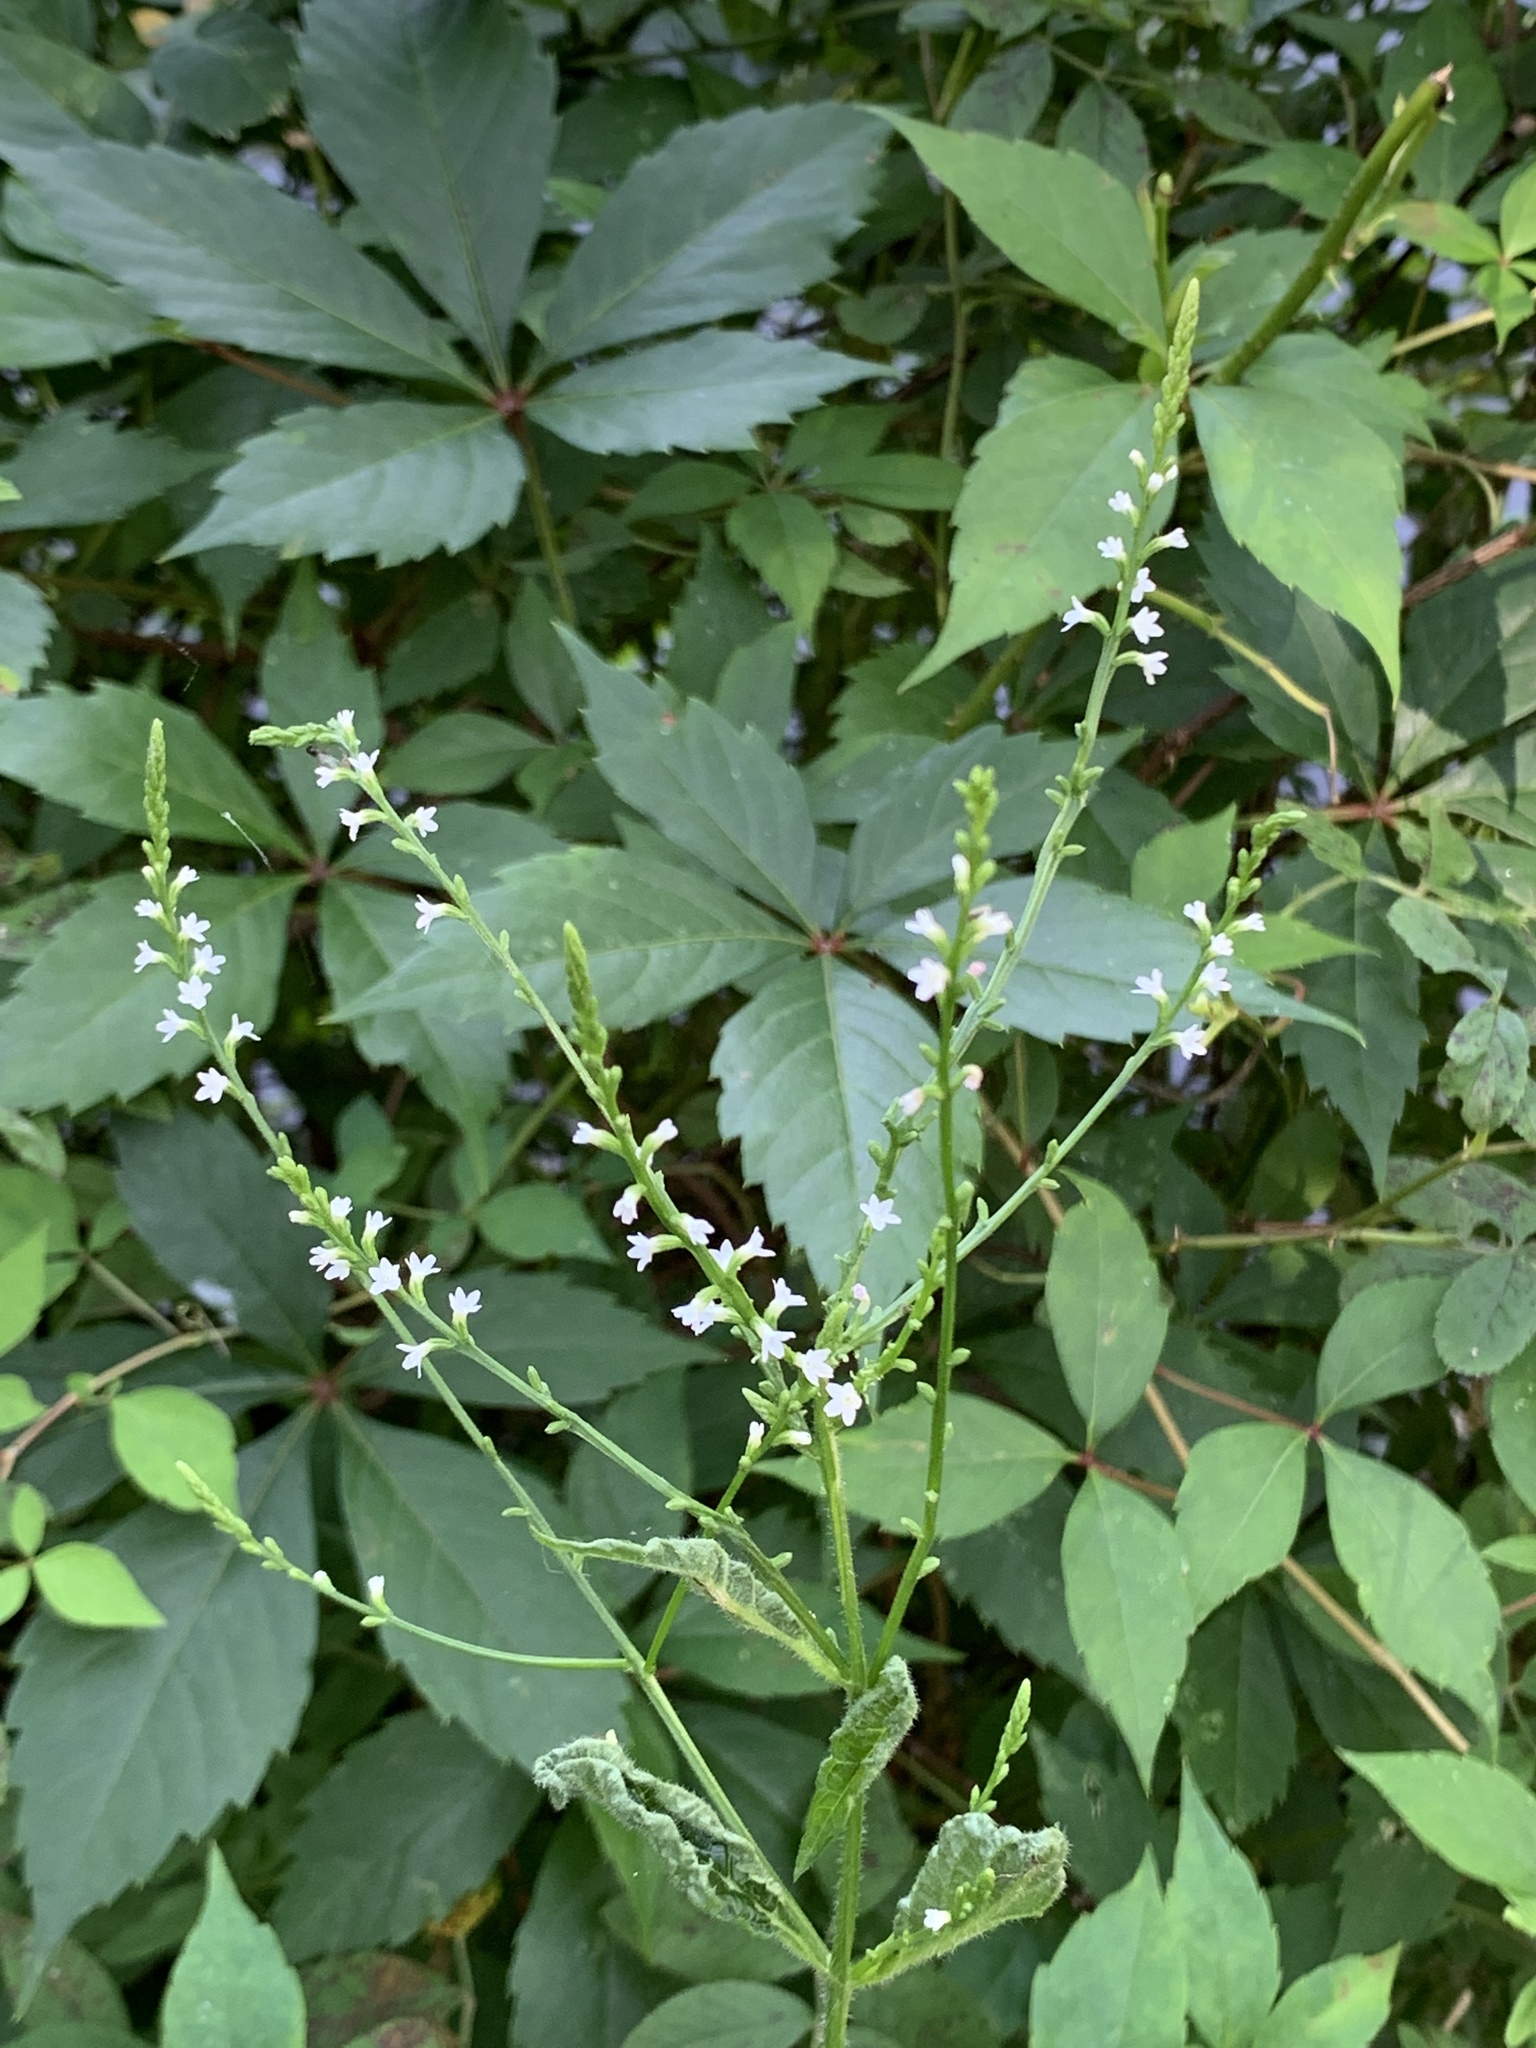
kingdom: Plantae
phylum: Tracheophyta
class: Magnoliopsida
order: Lamiales
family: Verbenaceae
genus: Verbena
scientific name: Verbena urticifolia
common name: Nettle-leaved vervain
